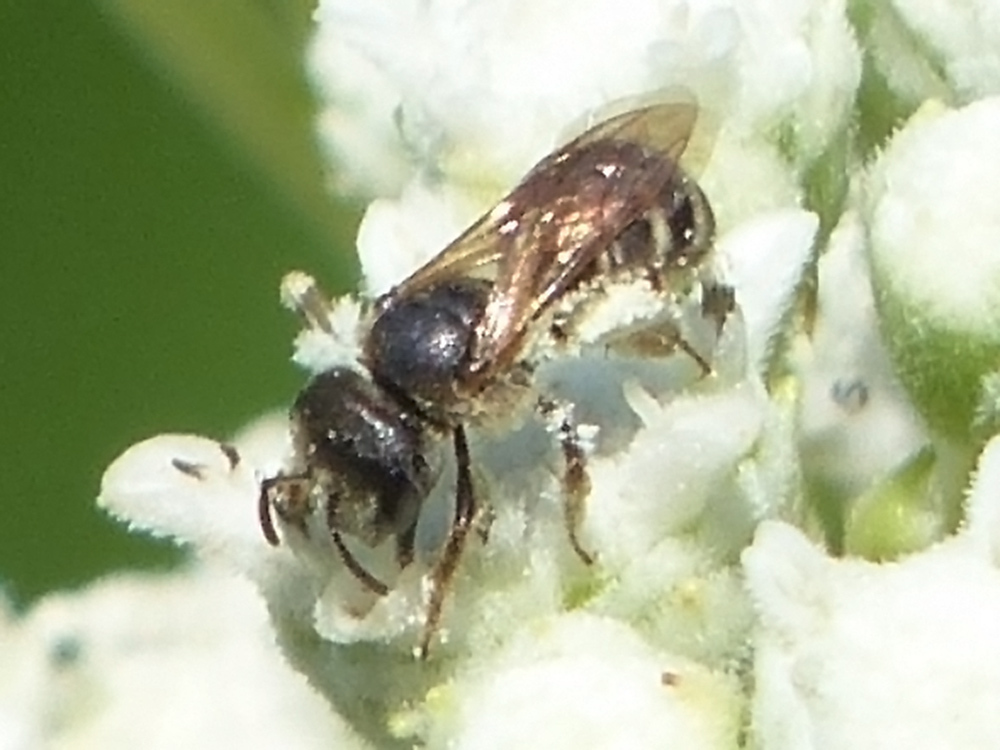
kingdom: Animalia
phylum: Arthropoda
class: Insecta
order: Hymenoptera
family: Halictidae
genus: Halictus
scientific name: Halictus ligatus
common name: Ligated furrow bee
